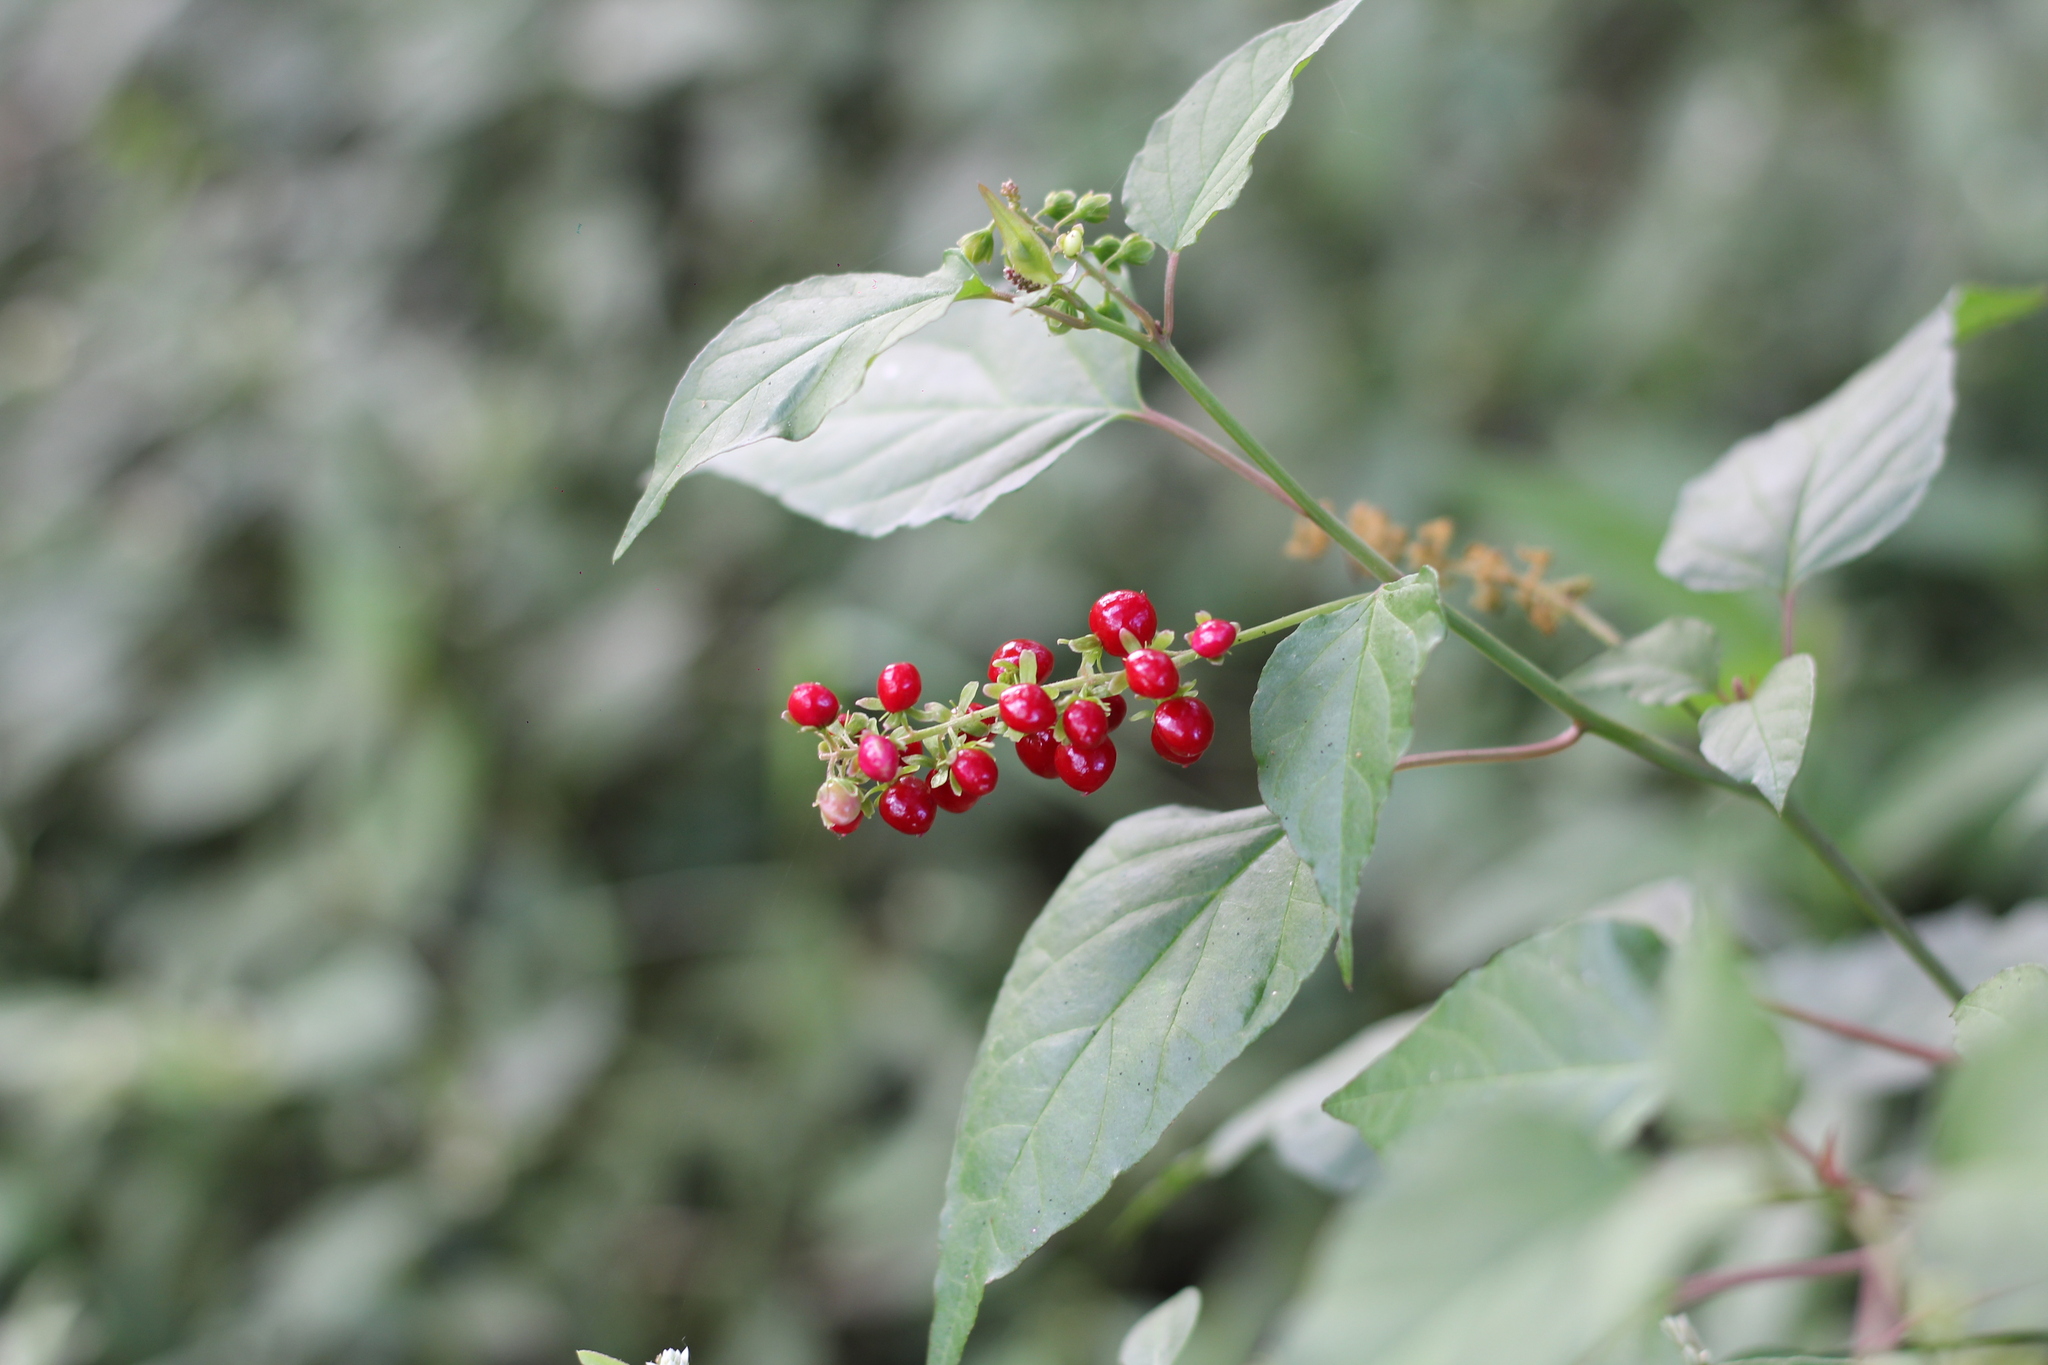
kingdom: Plantae
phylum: Tracheophyta
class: Magnoliopsida
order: Caryophyllales
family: Phytolaccaceae
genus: Rivina
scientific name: Rivina humilis
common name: Rougeplant
